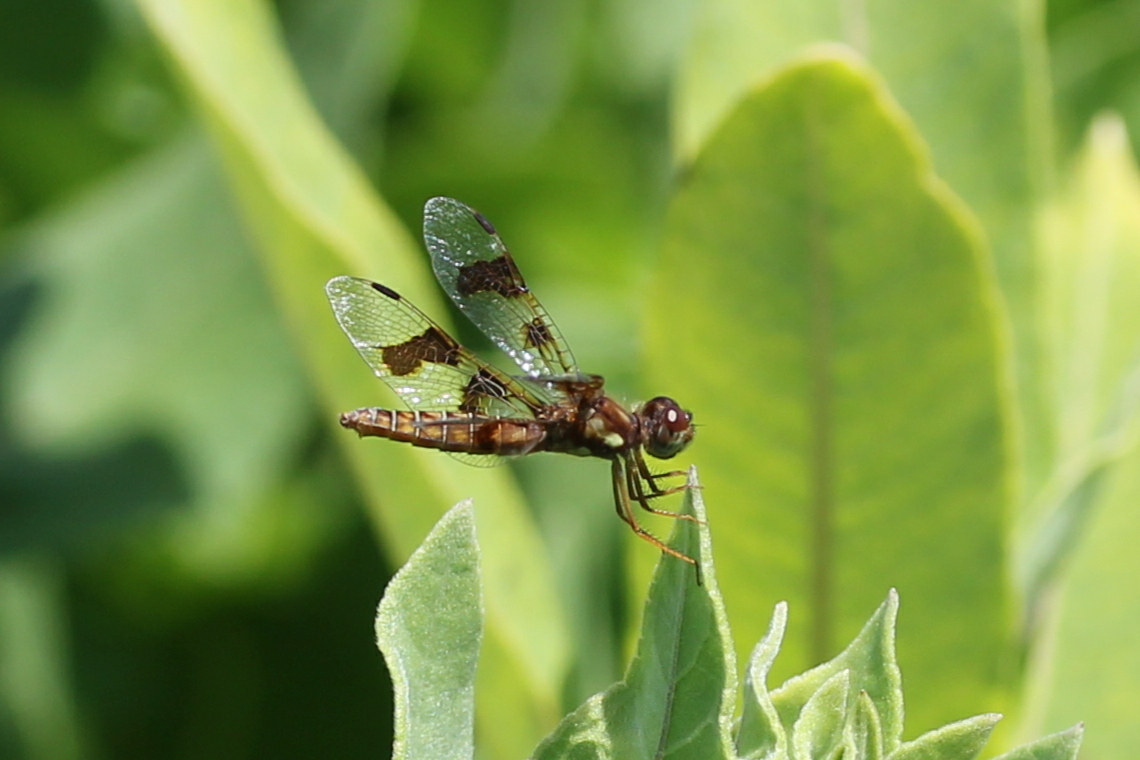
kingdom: Animalia
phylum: Arthropoda
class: Insecta
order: Odonata
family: Libellulidae
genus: Perithemis
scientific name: Perithemis tenera
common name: Eastern amberwing
